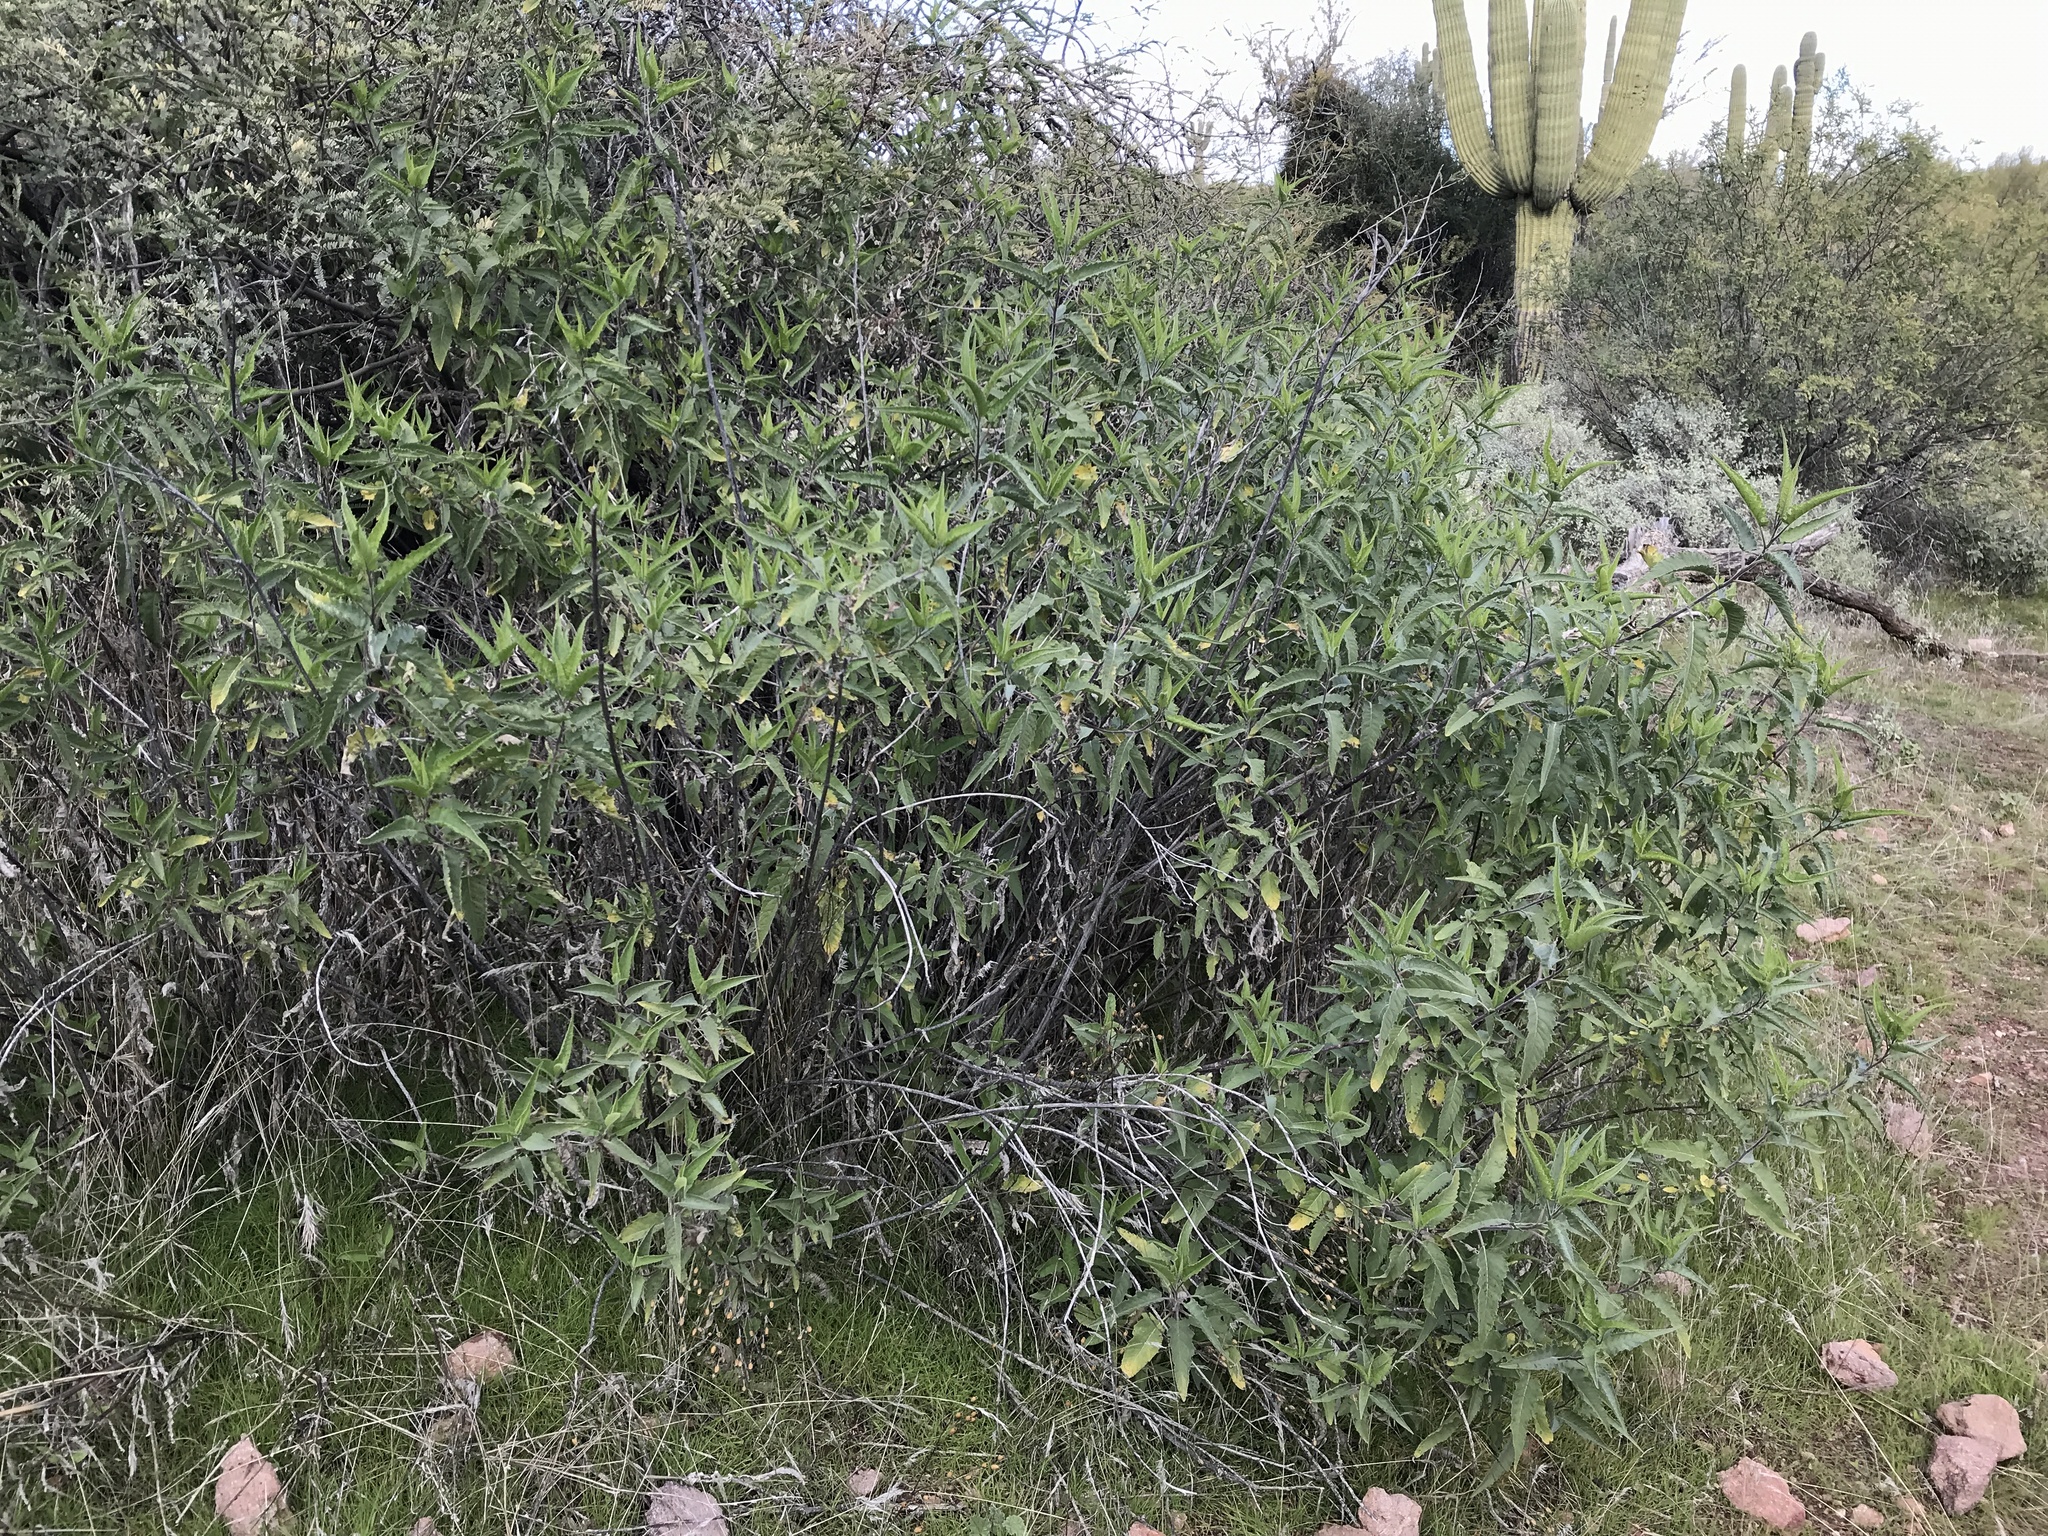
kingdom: Plantae
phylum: Tracheophyta
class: Magnoliopsida
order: Asterales
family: Asteraceae
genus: Ambrosia
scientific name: Ambrosia ambrosioides
